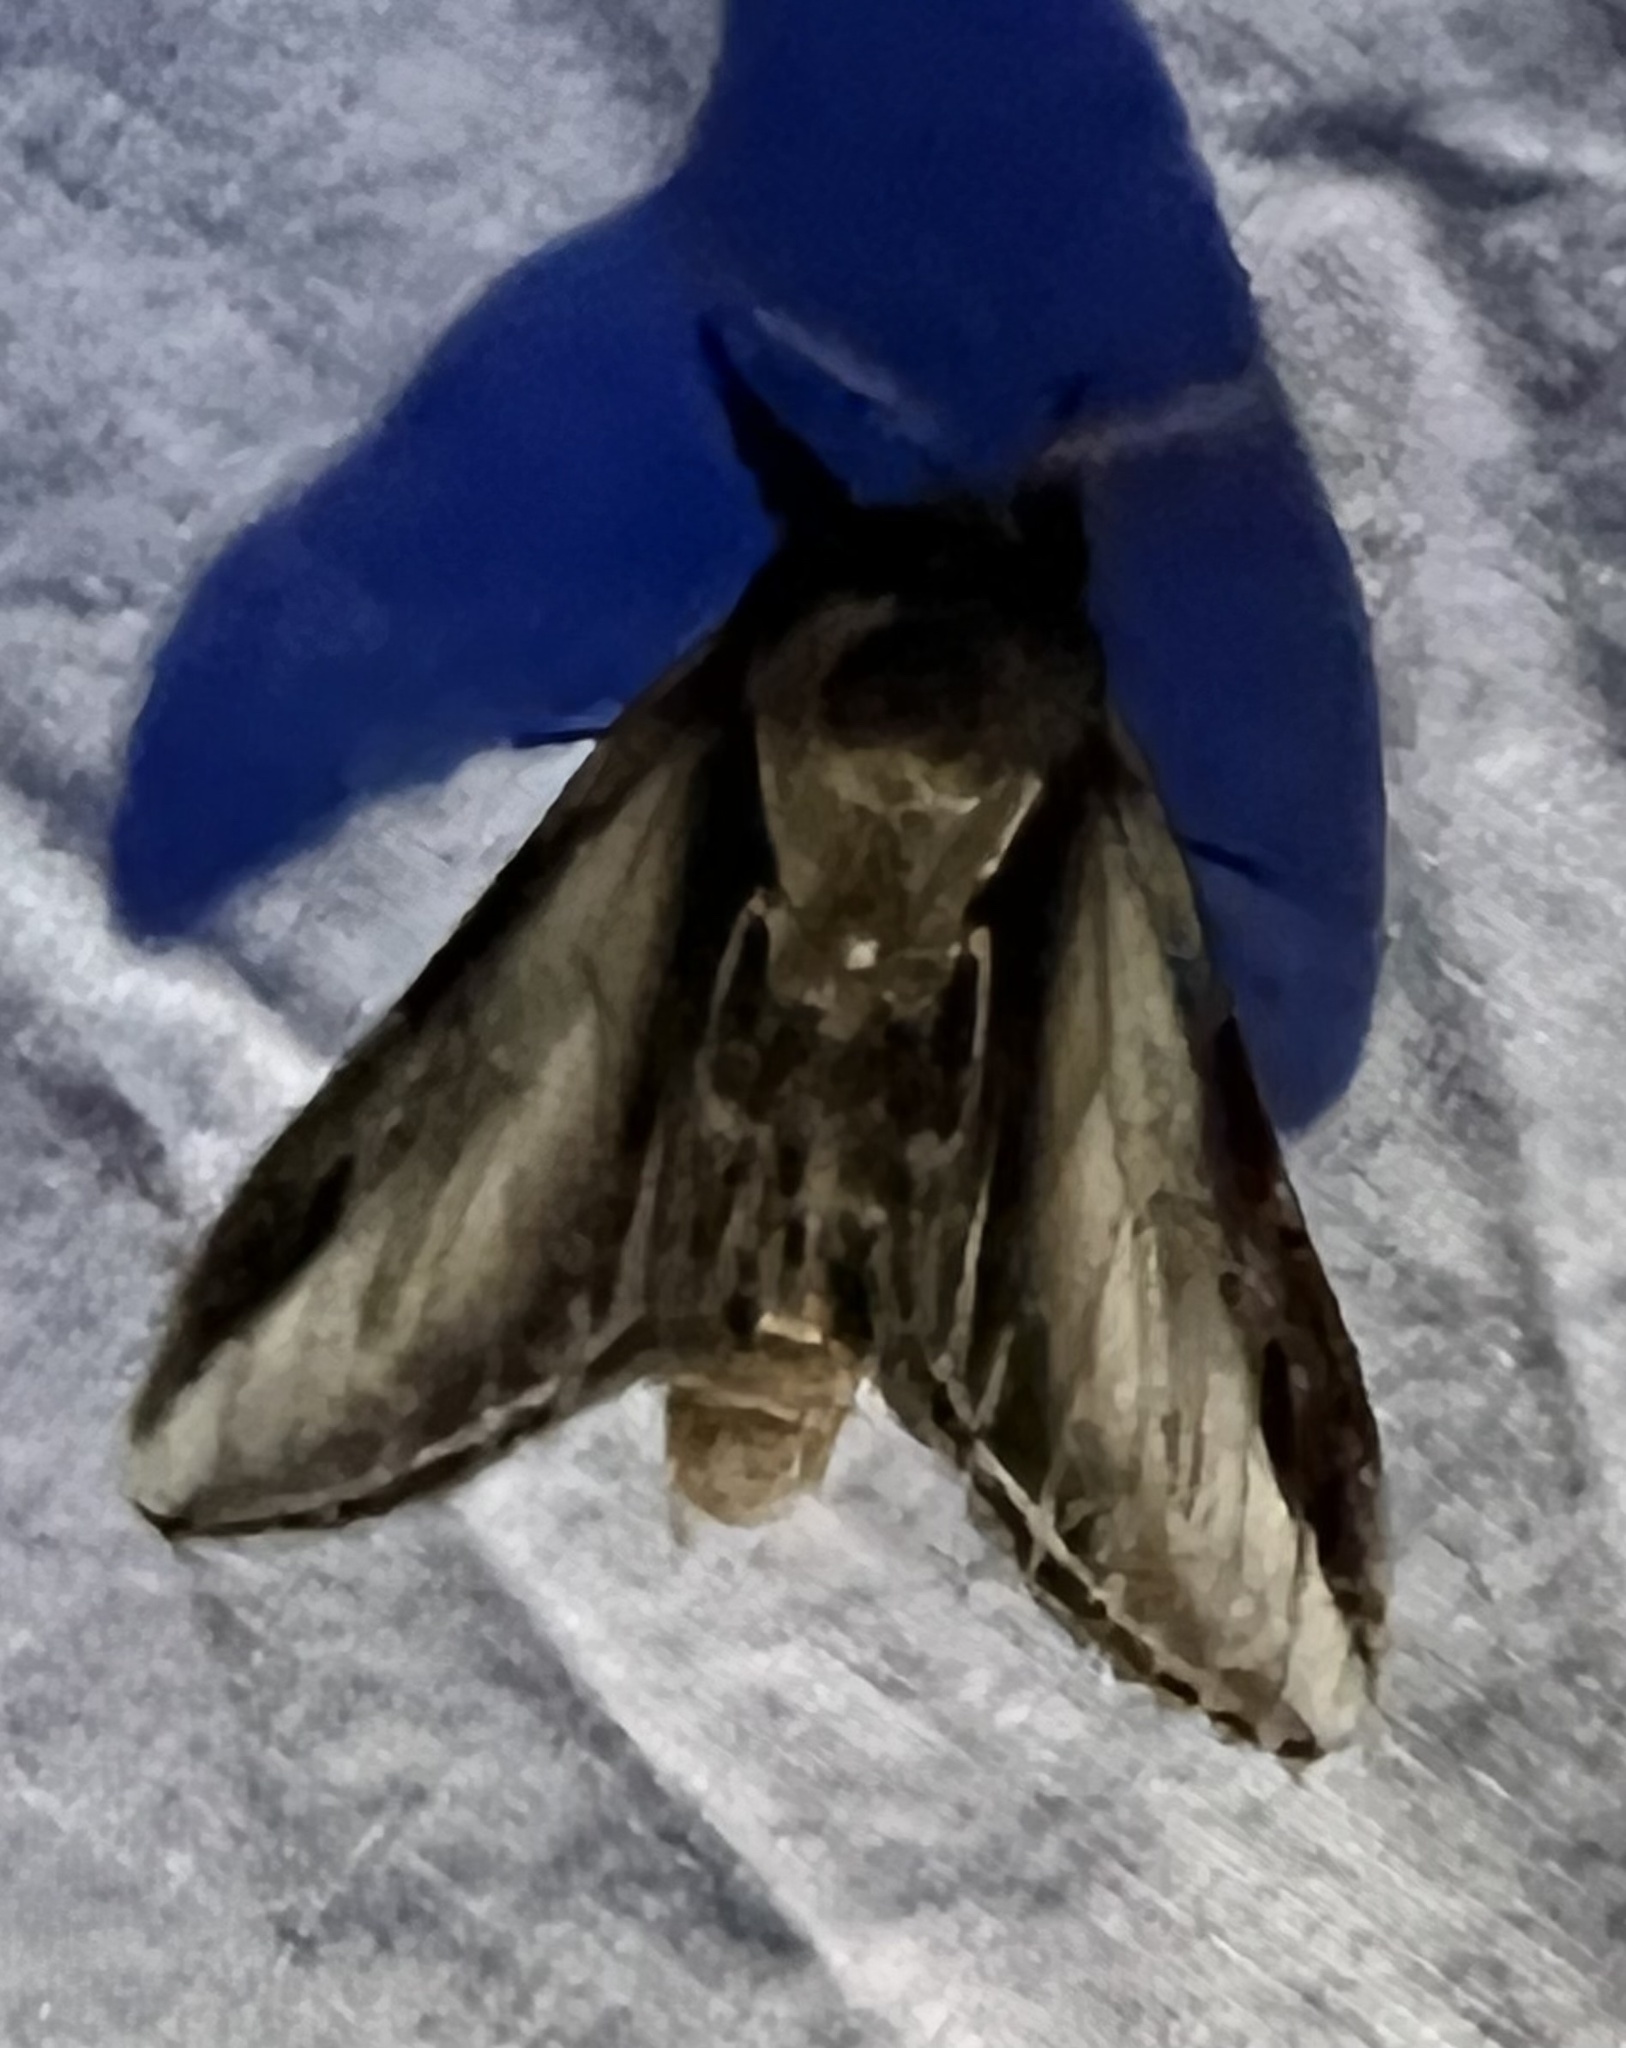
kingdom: Animalia
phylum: Arthropoda
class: Insecta
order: Lepidoptera
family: Notodontidae
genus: Pheosia
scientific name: Pheosia rimosa
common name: Black-rimmed prominent
